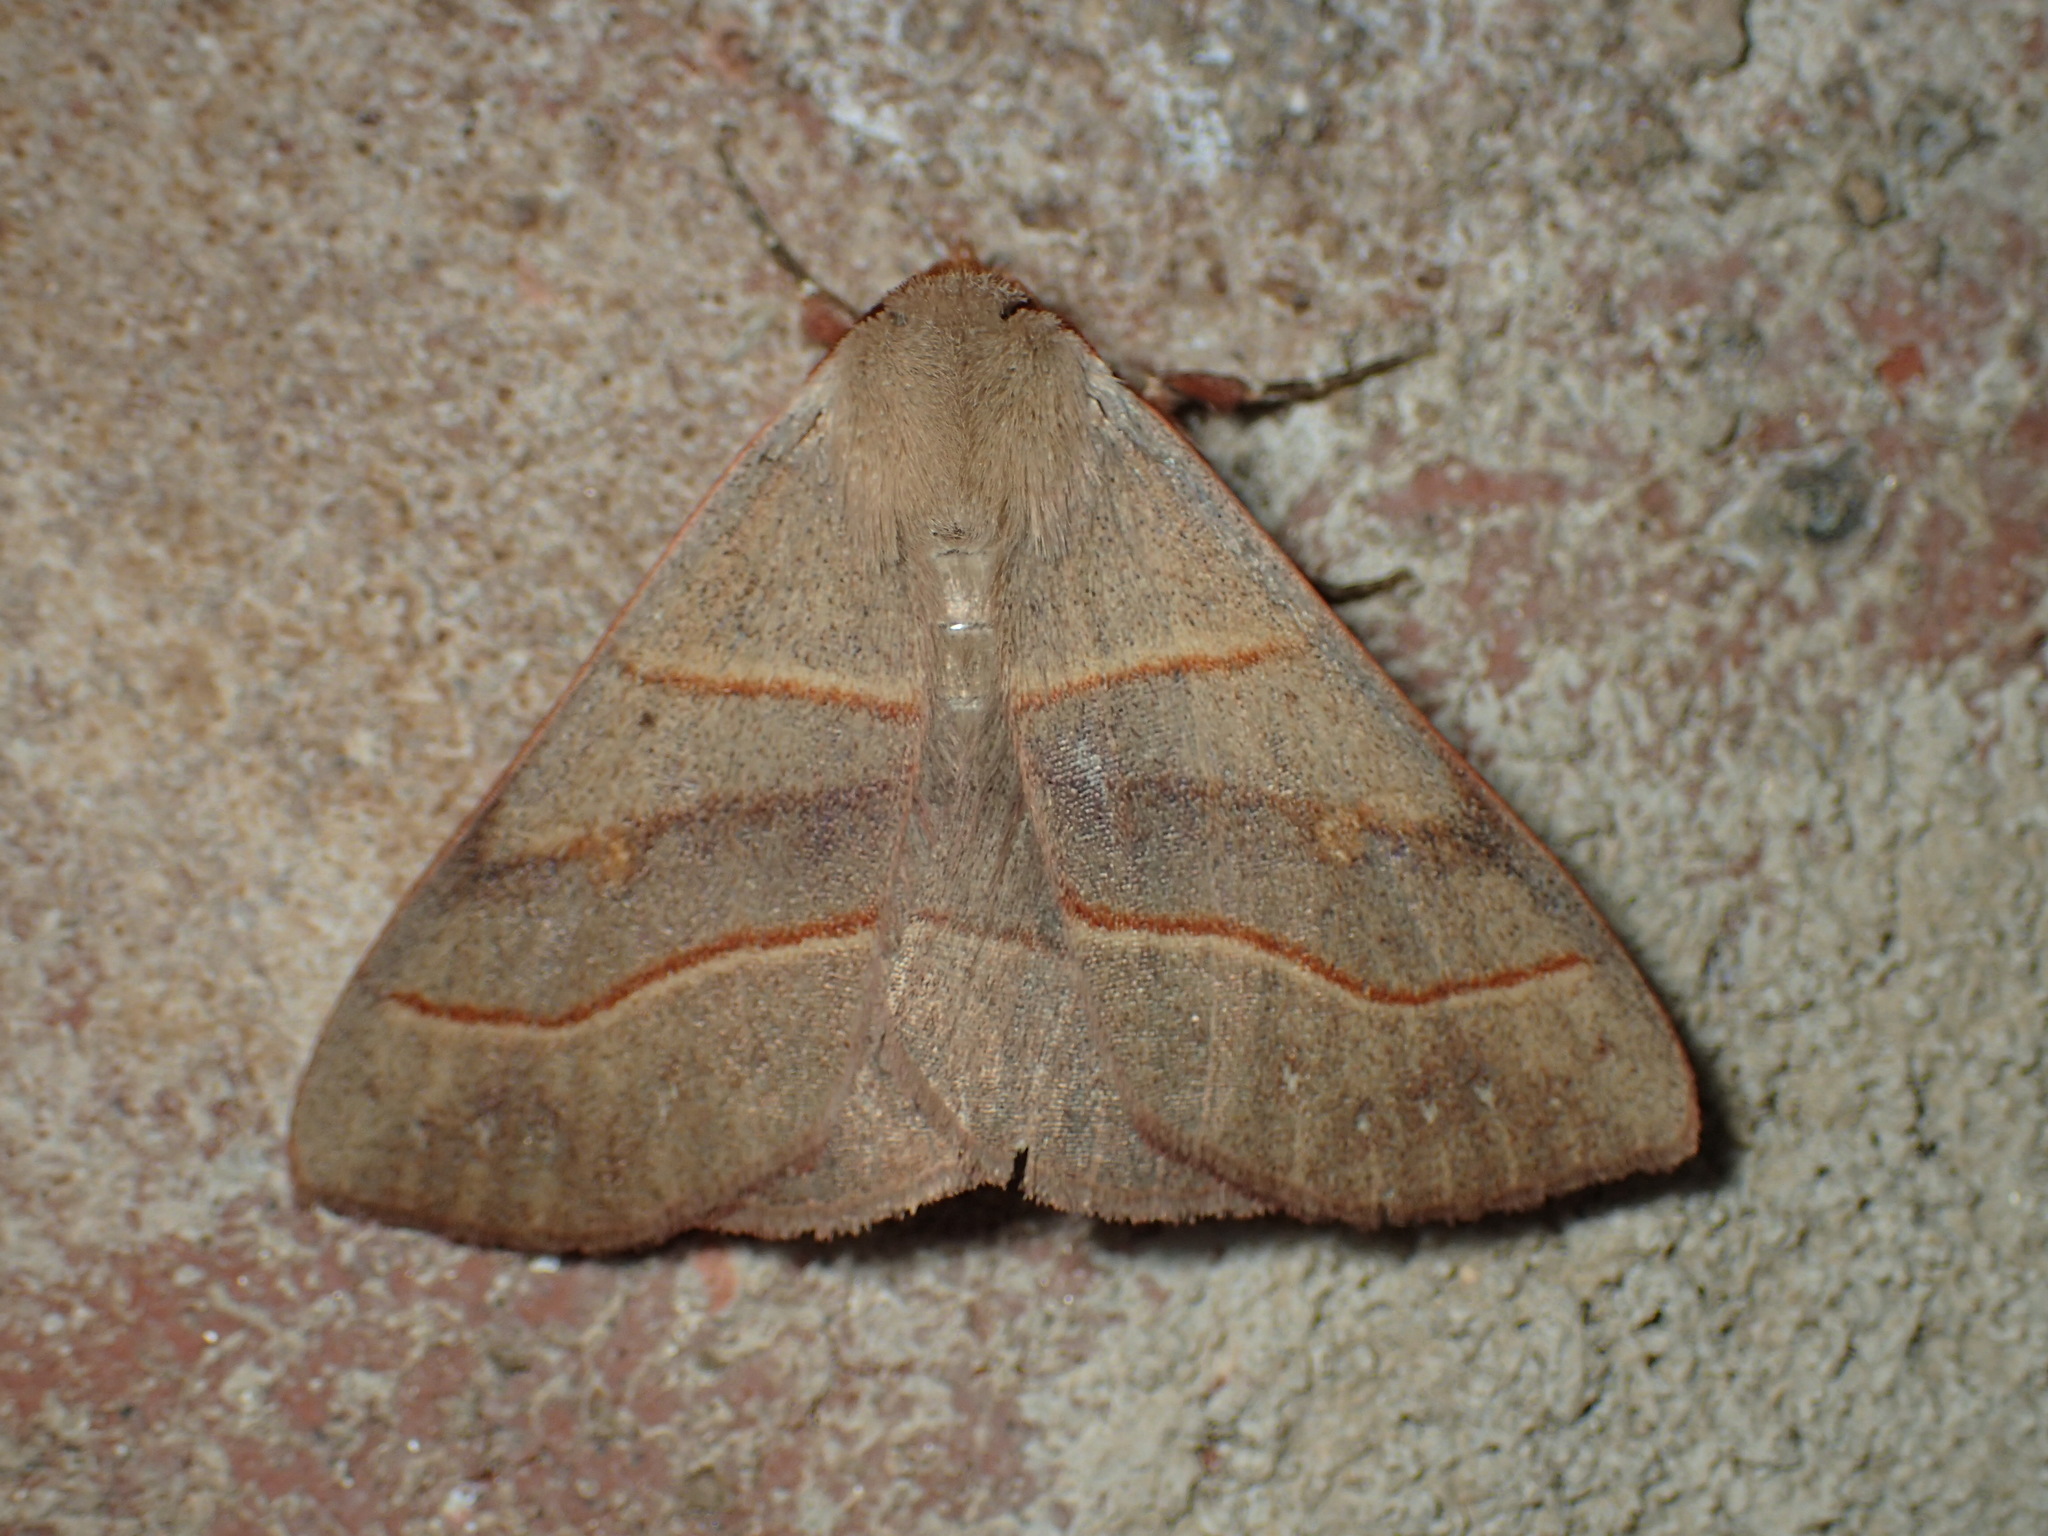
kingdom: Animalia
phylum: Arthropoda
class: Insecta
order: Lepidoptera
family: Erebidae
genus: Panopoda
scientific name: Panopoda rufimargo
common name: Red-lined panopoda moth
